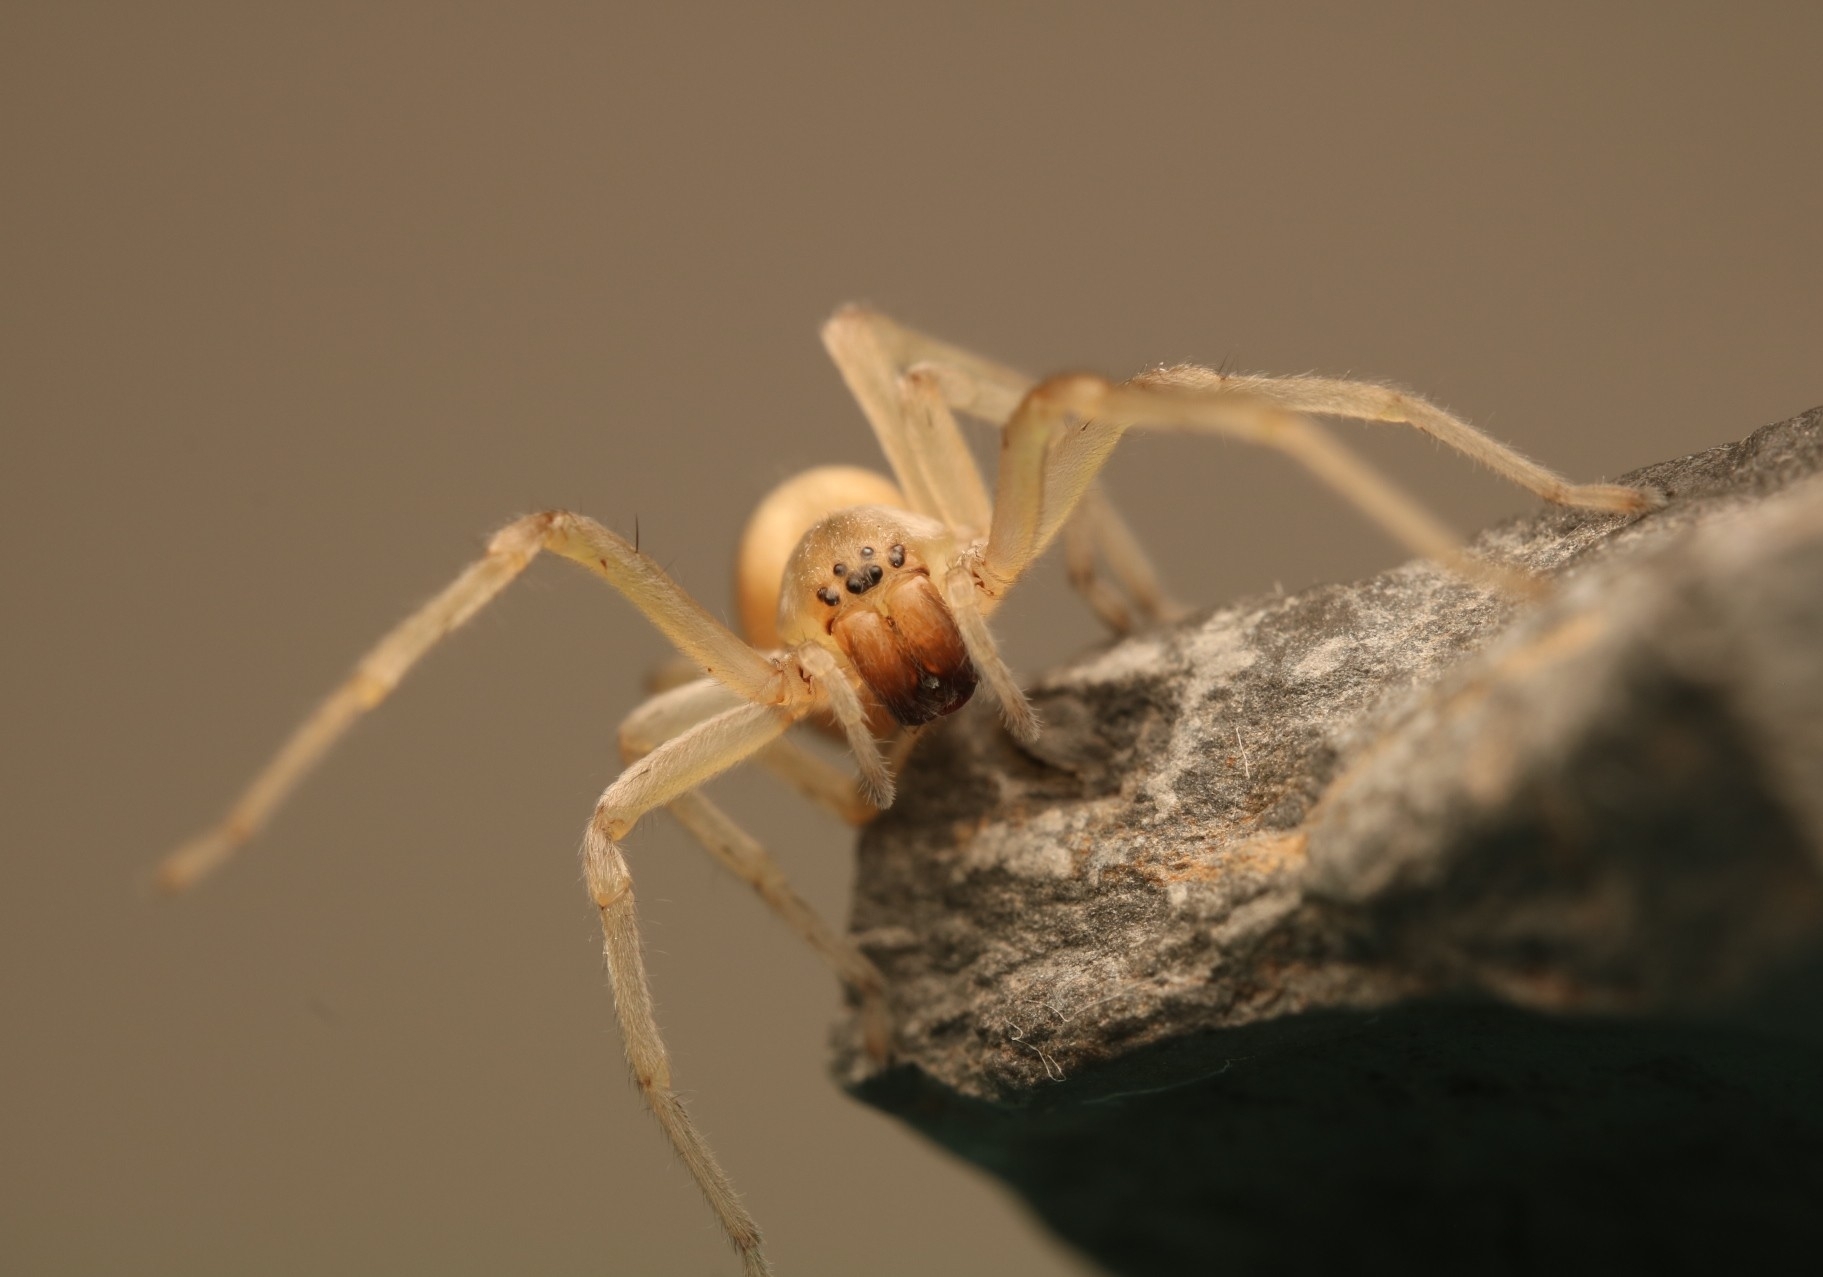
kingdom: Animalia
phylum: Arthropoda
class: Arachnida
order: Araneae
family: Cheiracanthiidae
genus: Cheiracanthium
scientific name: Cheiracanthium mildei
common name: Northern yellow sac spider
